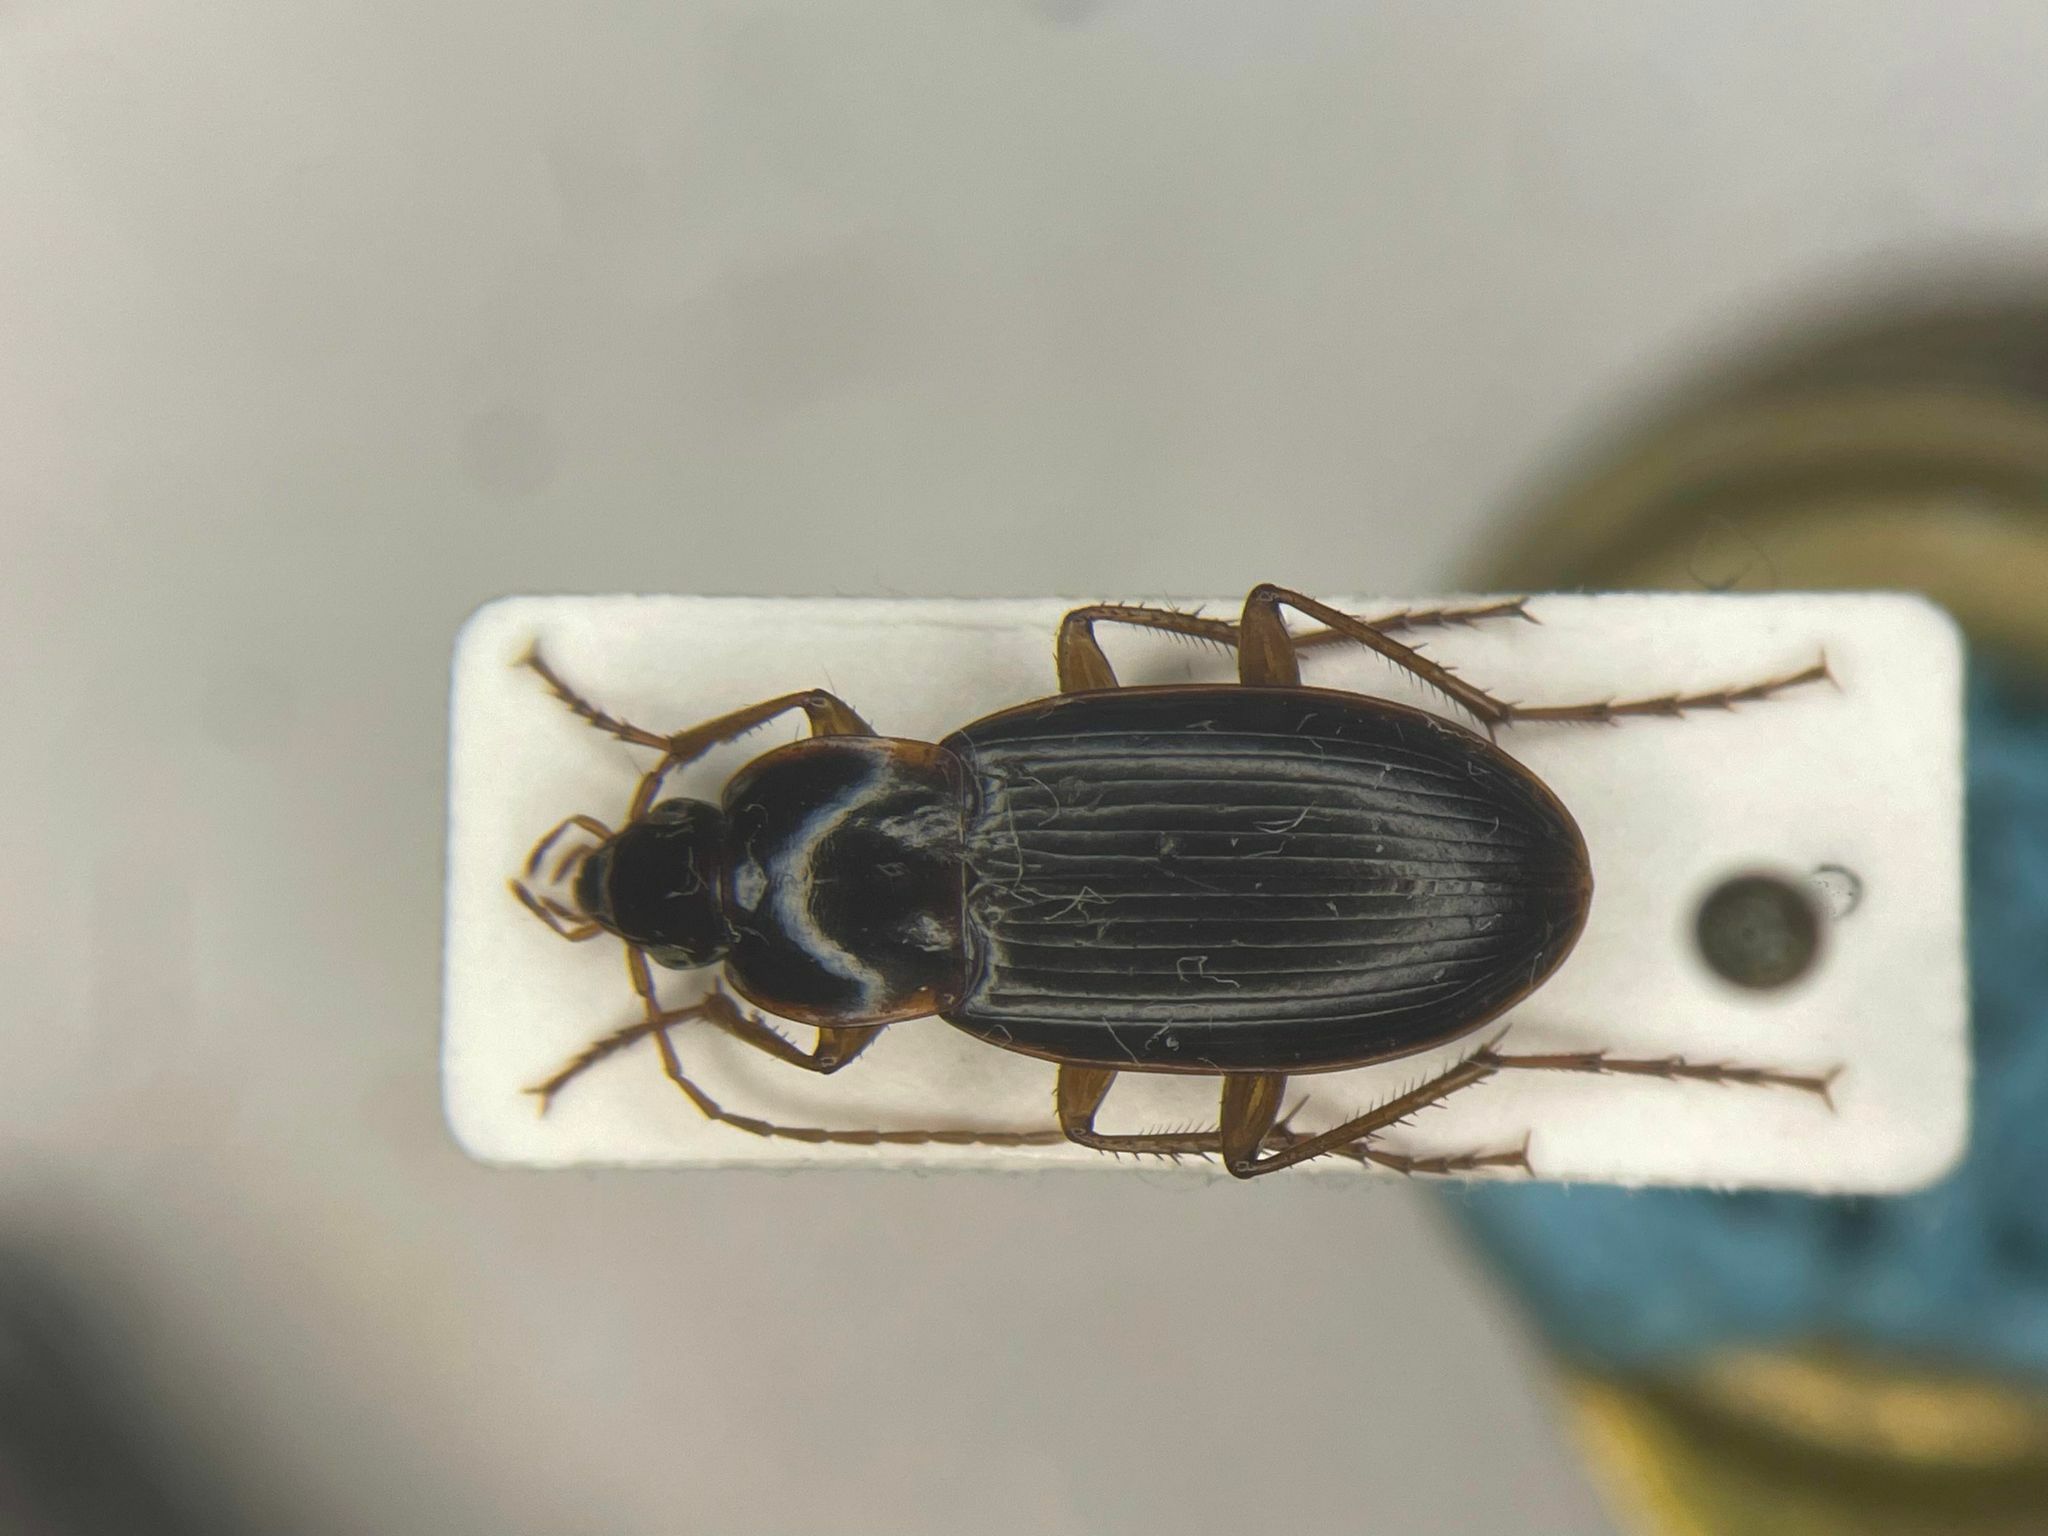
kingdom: Animalia
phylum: Arthropoda
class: Insecta
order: Coleoptera
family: Carabidae
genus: Calathus
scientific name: Calathus gregarius
